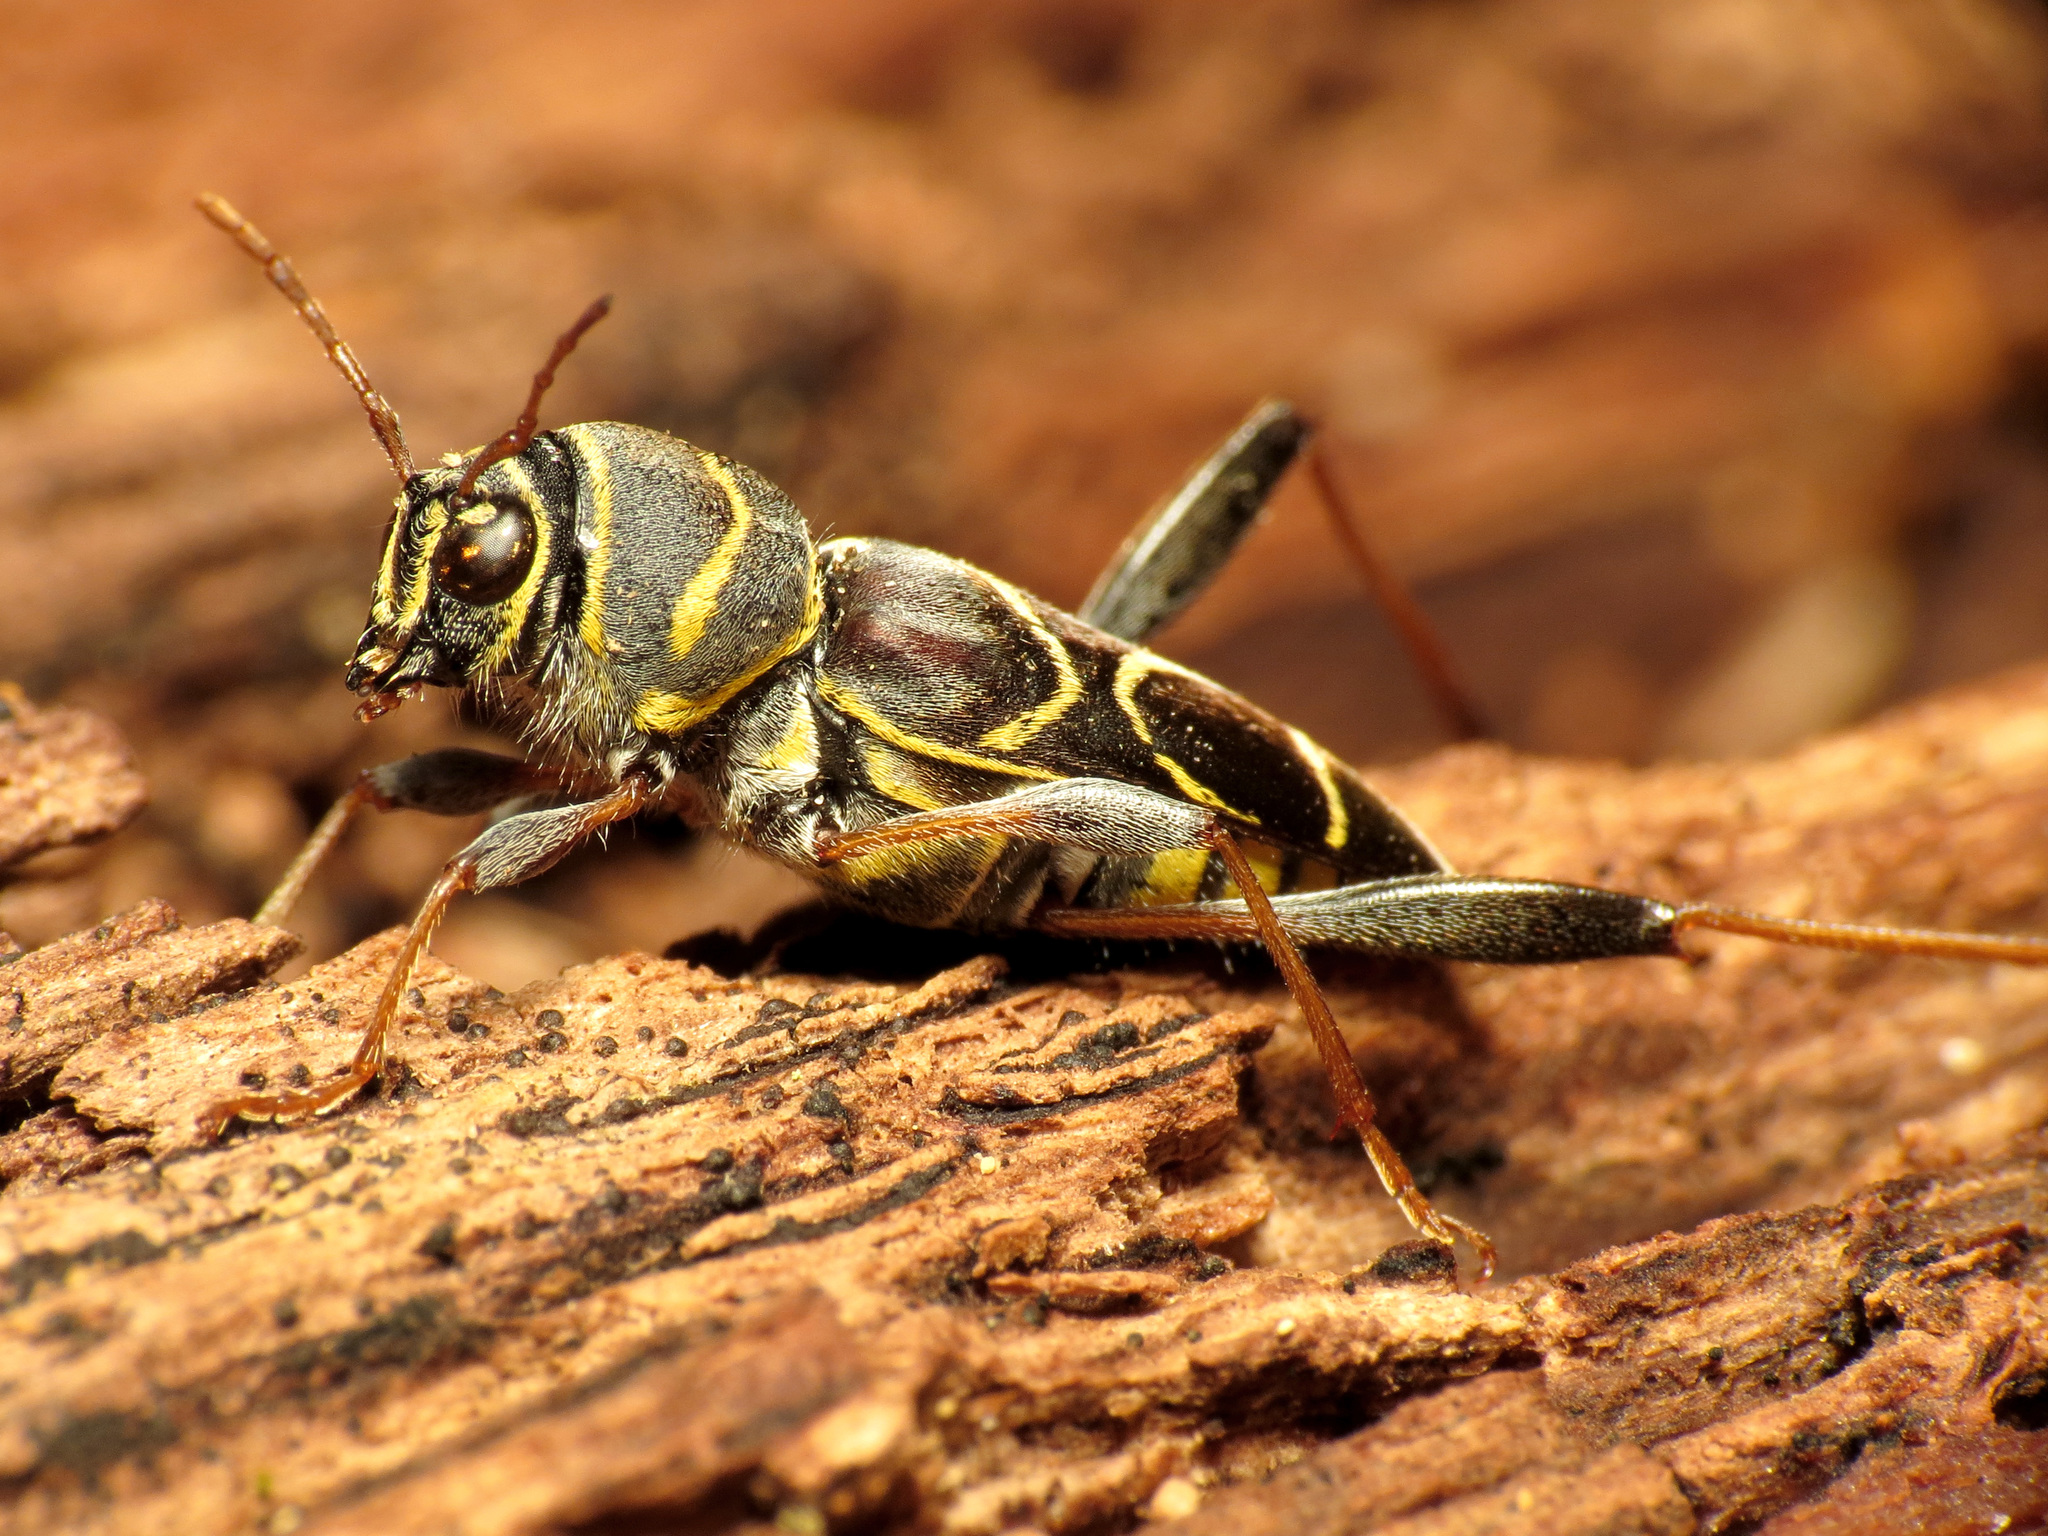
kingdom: Animalia
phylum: Arthropoda
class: Insecta
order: Coleoptera
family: Cerambycidae
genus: Neoclytus
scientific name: Neoclytus scutellaris
